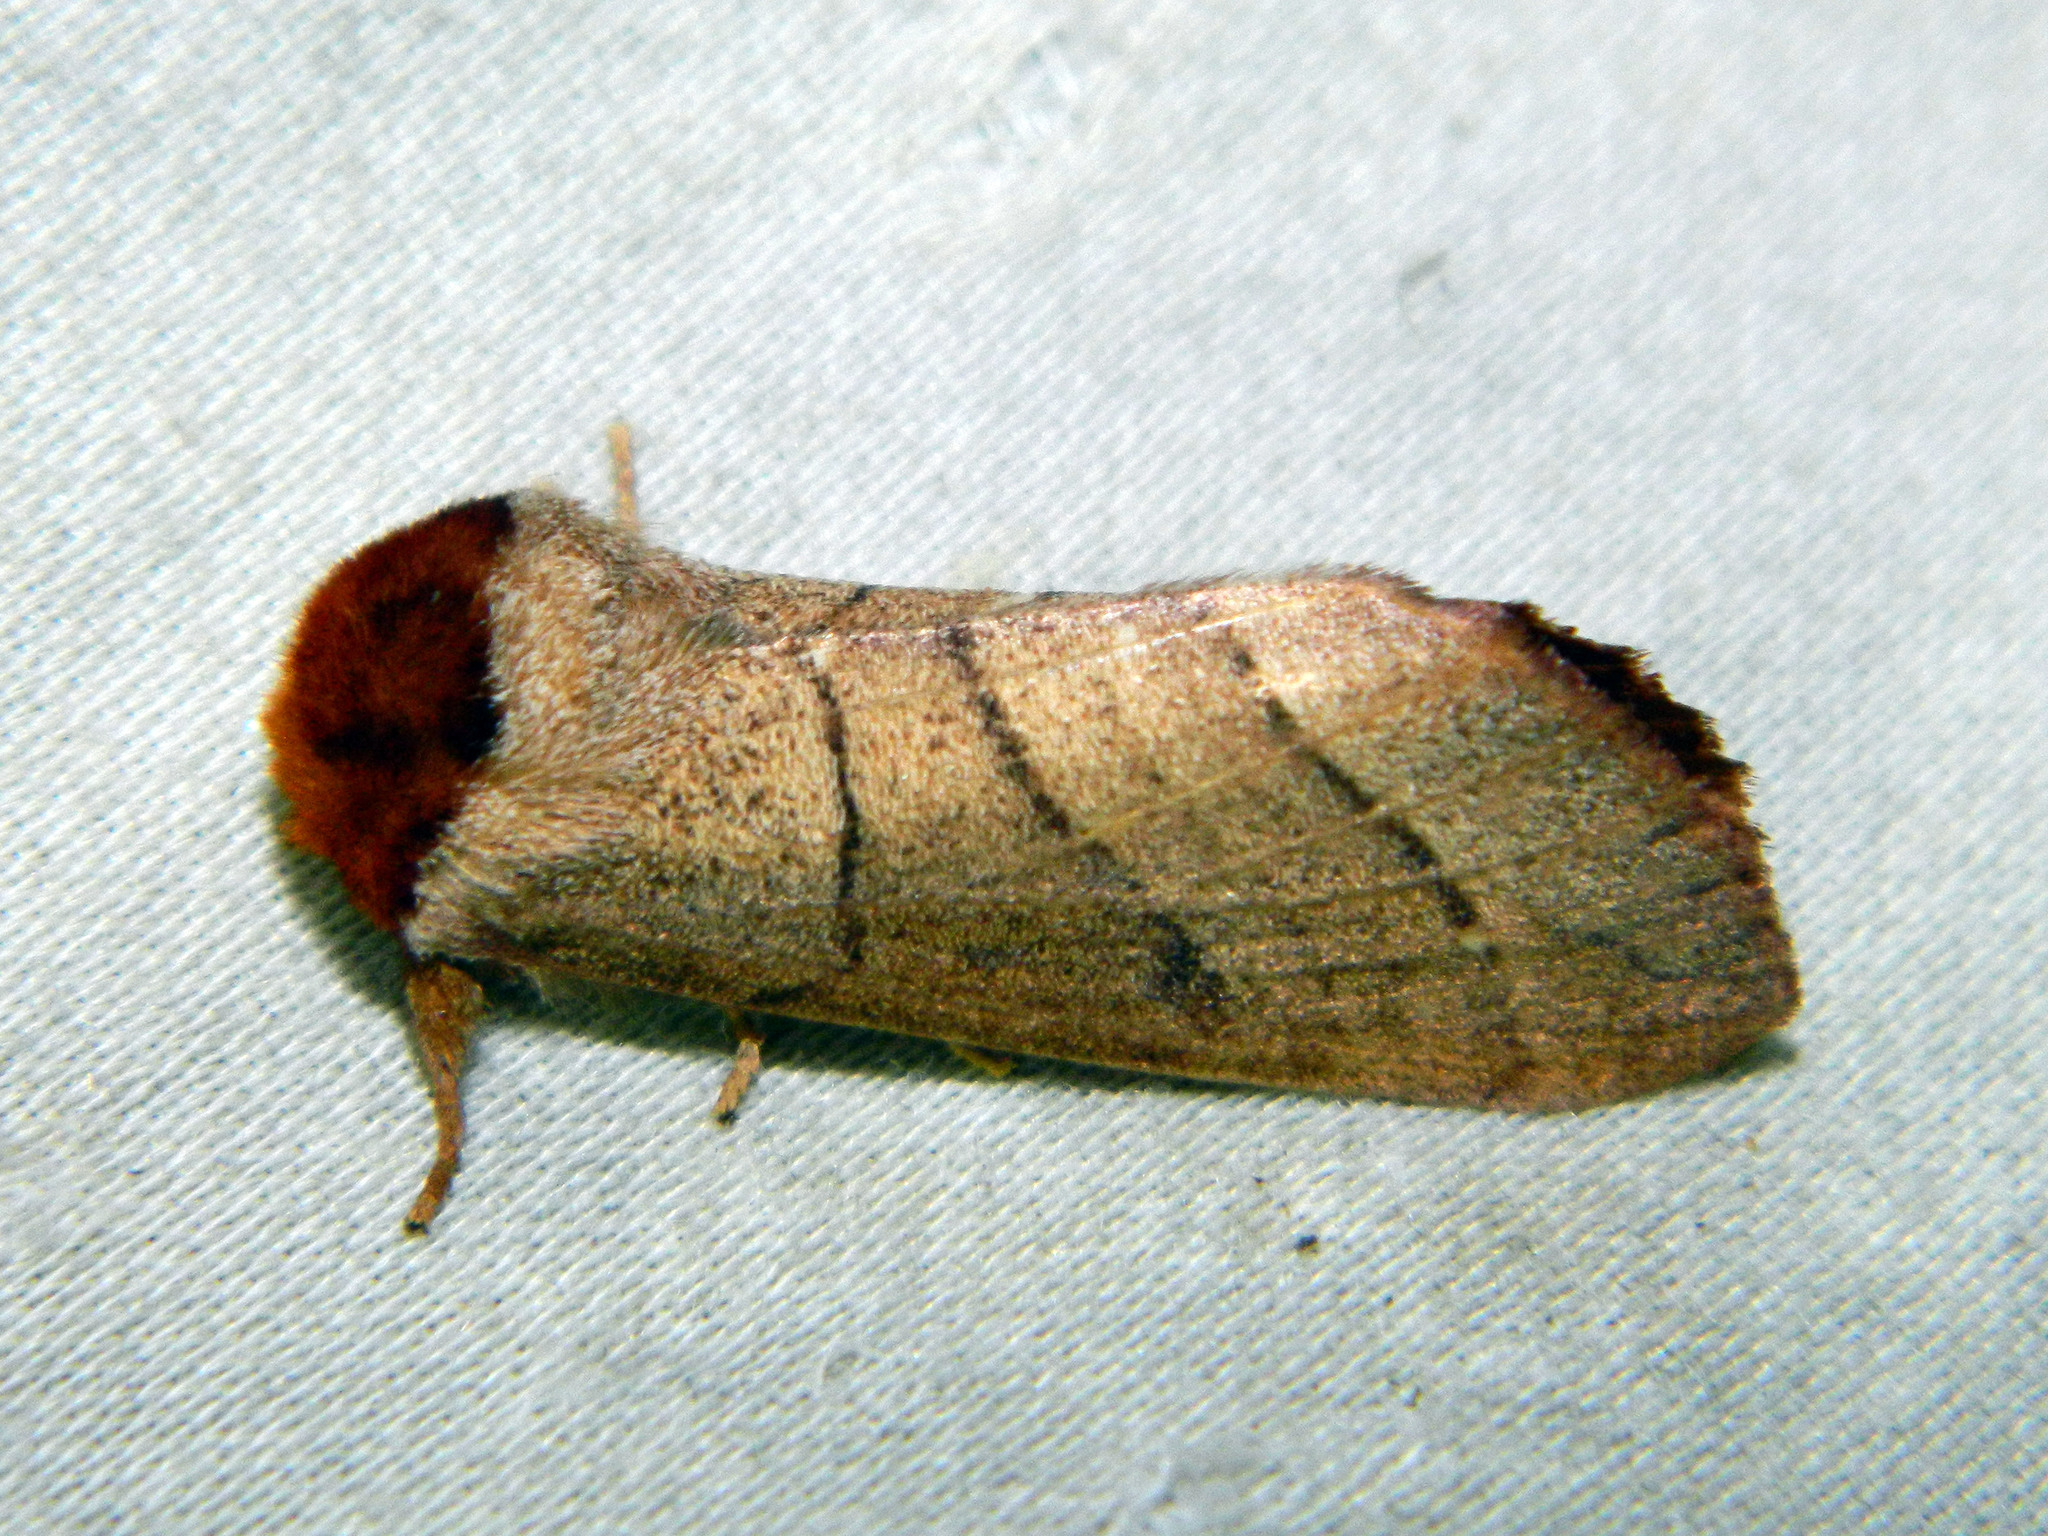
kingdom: Animalia
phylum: Arthropoda
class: Insecta
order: Lepidoptera
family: Notodontidae
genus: Datana
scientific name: Datana ministra
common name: Yellow-necked caterpillar moth
